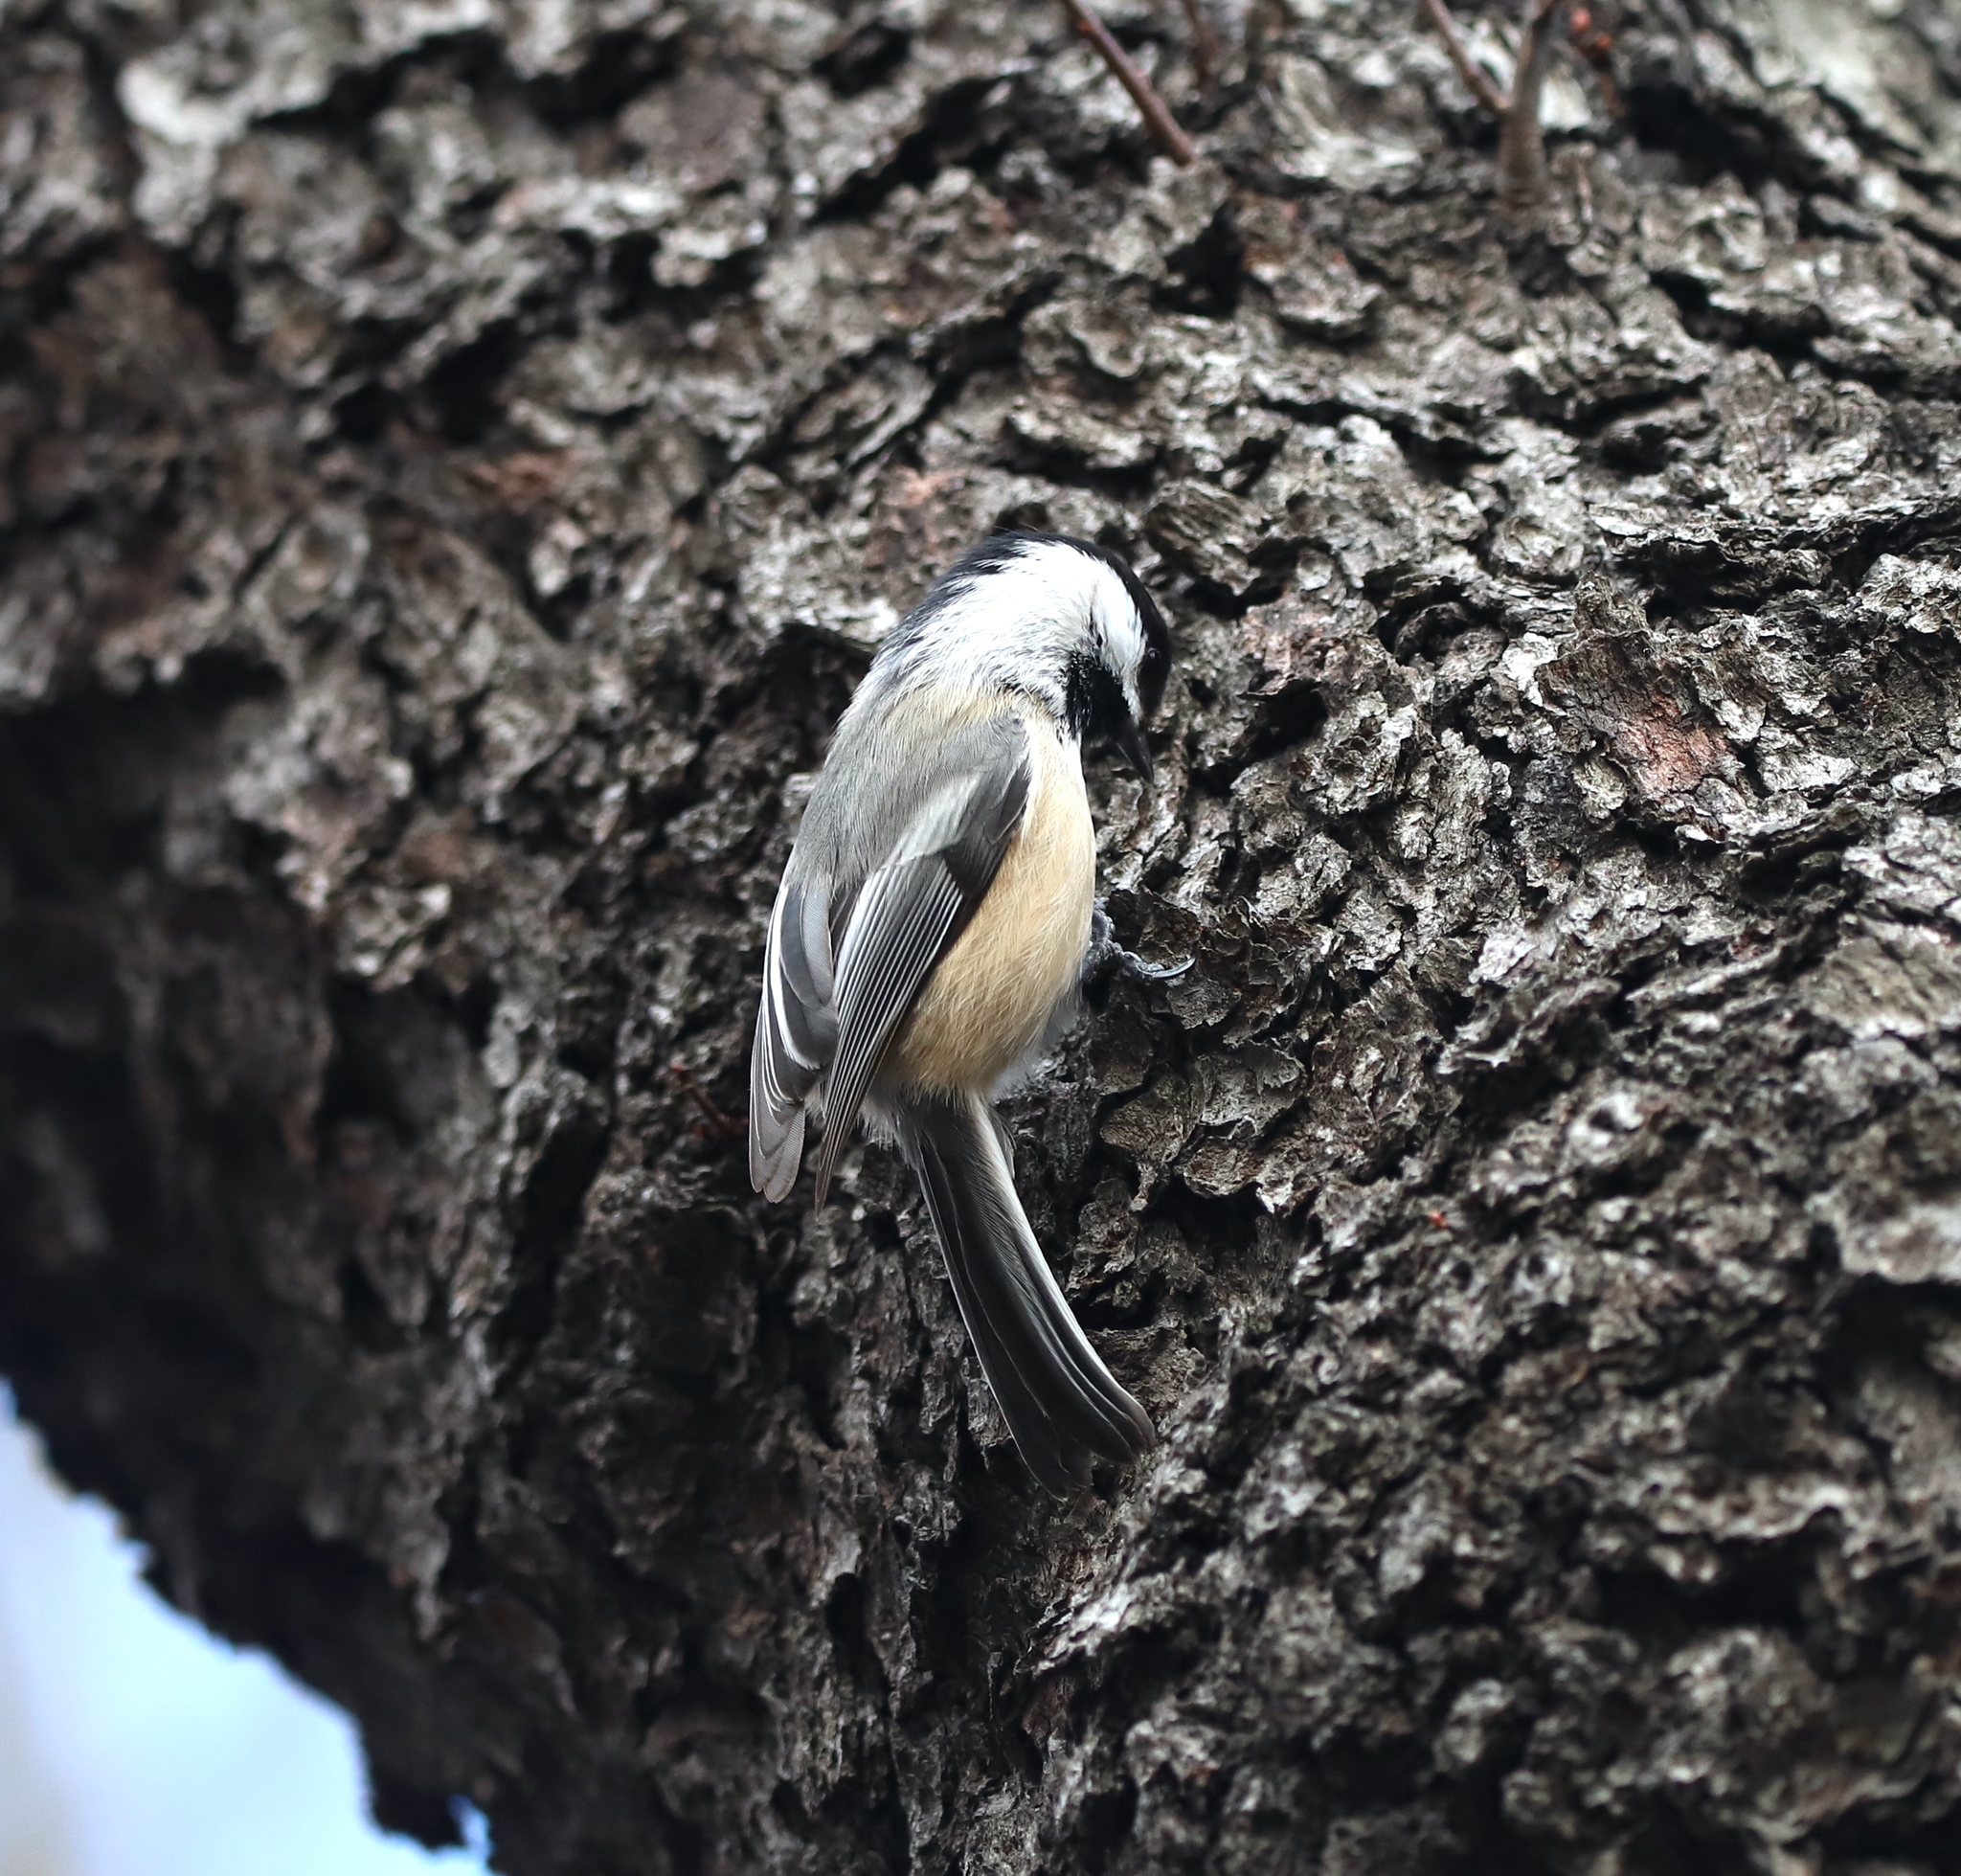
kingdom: Animalia
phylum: Chordata
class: Aves
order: Passeriformes
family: Paridae
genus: Poecile
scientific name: Poecile atricapillus
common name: Black-capped chickadee
